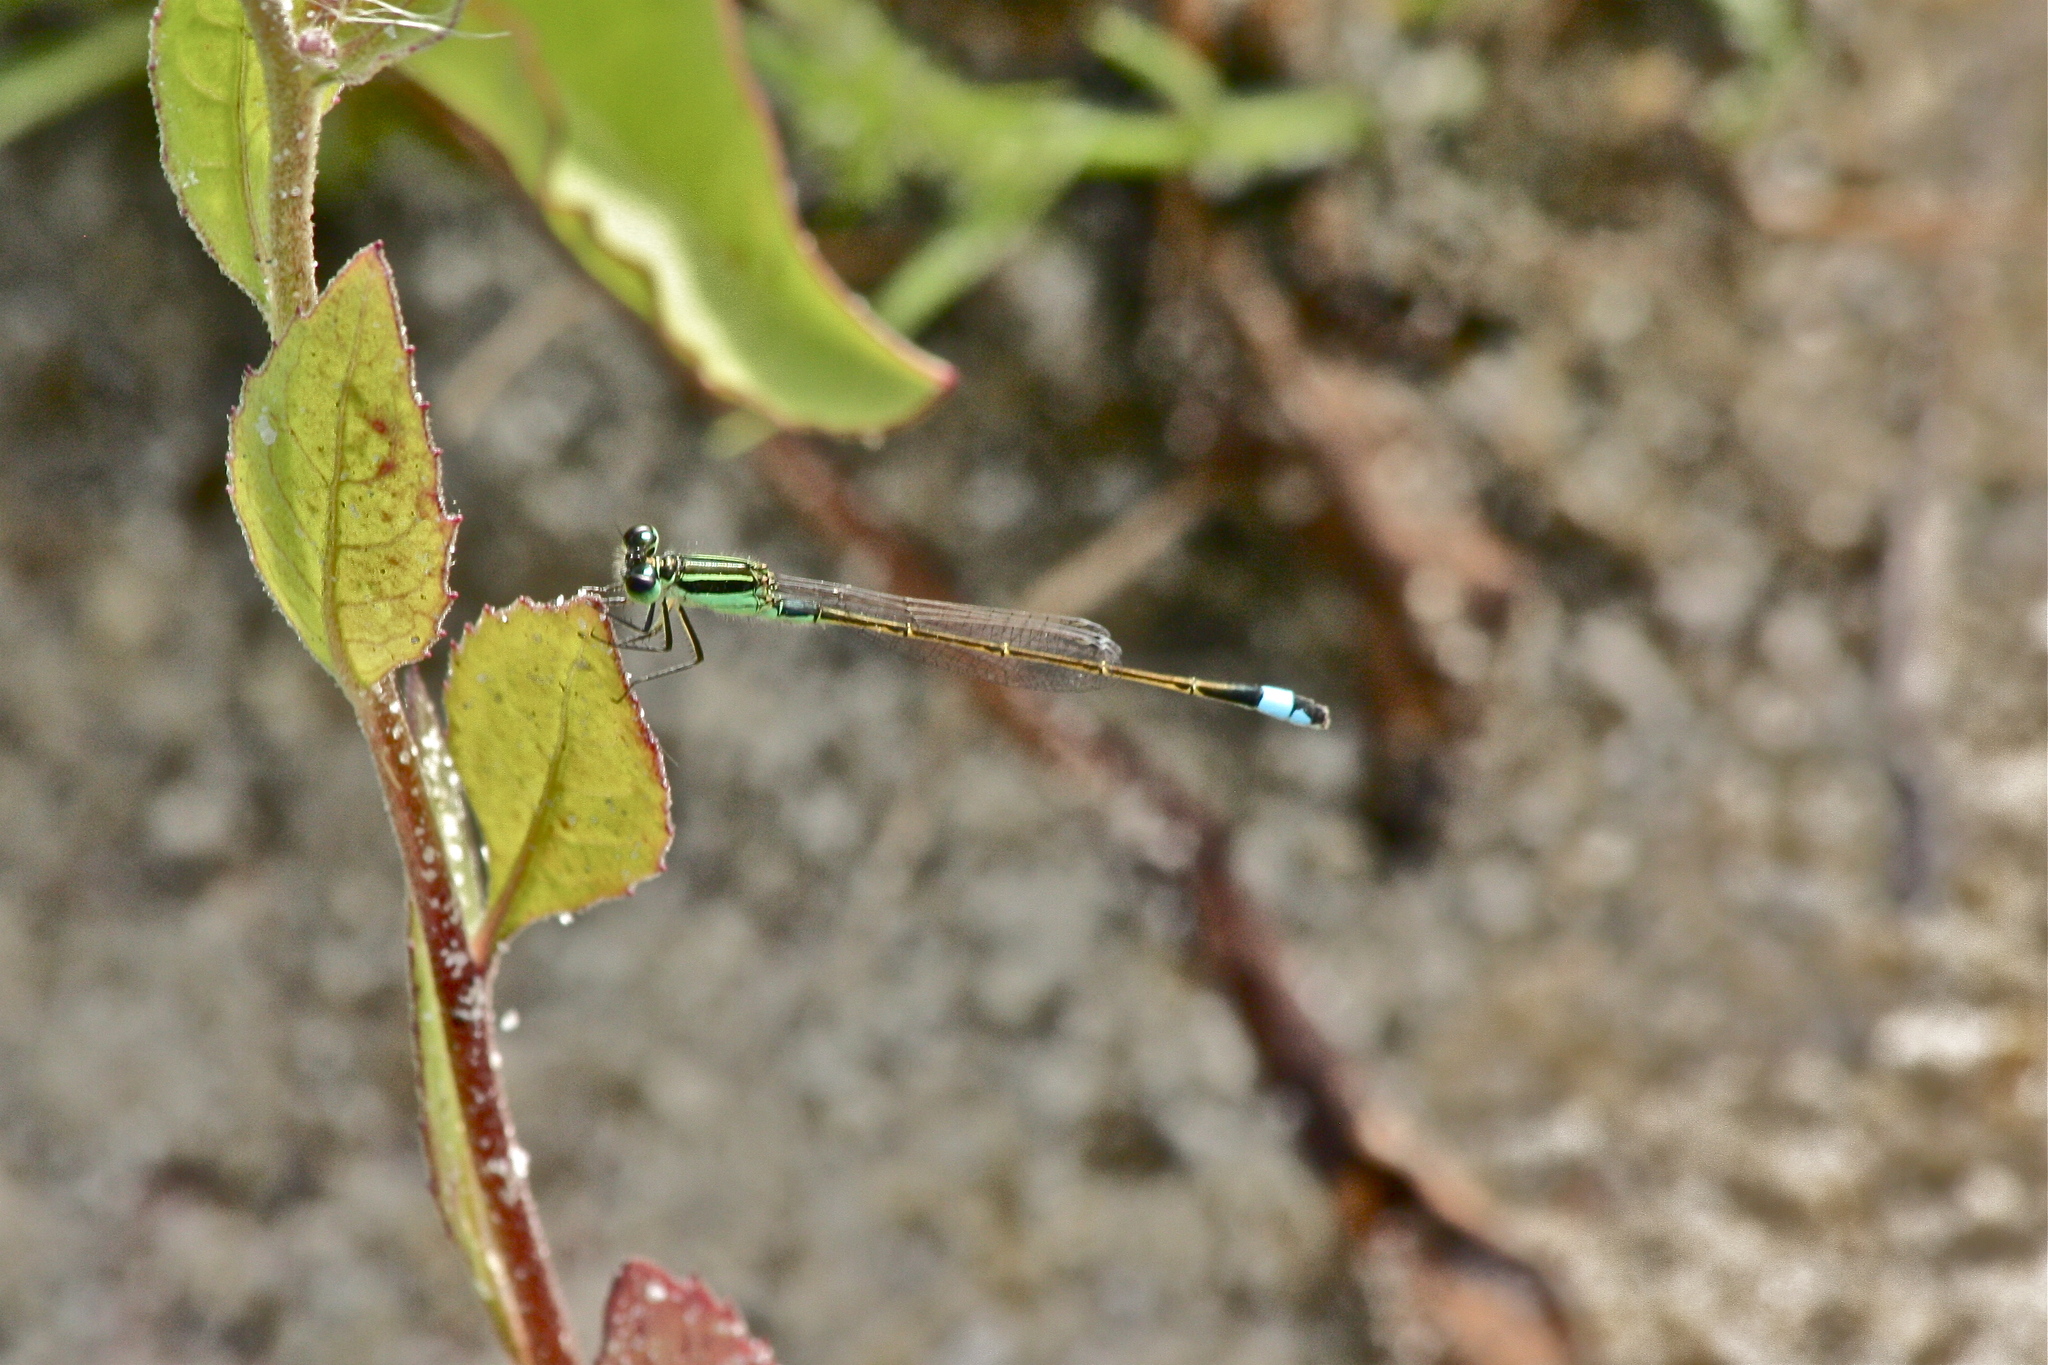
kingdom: Animalia
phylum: Arthropoda
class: Insecta
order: Odonata
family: Coenagrionidae
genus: Ischnura
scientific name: Ischnura ramburii
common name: Rambur's forktail
